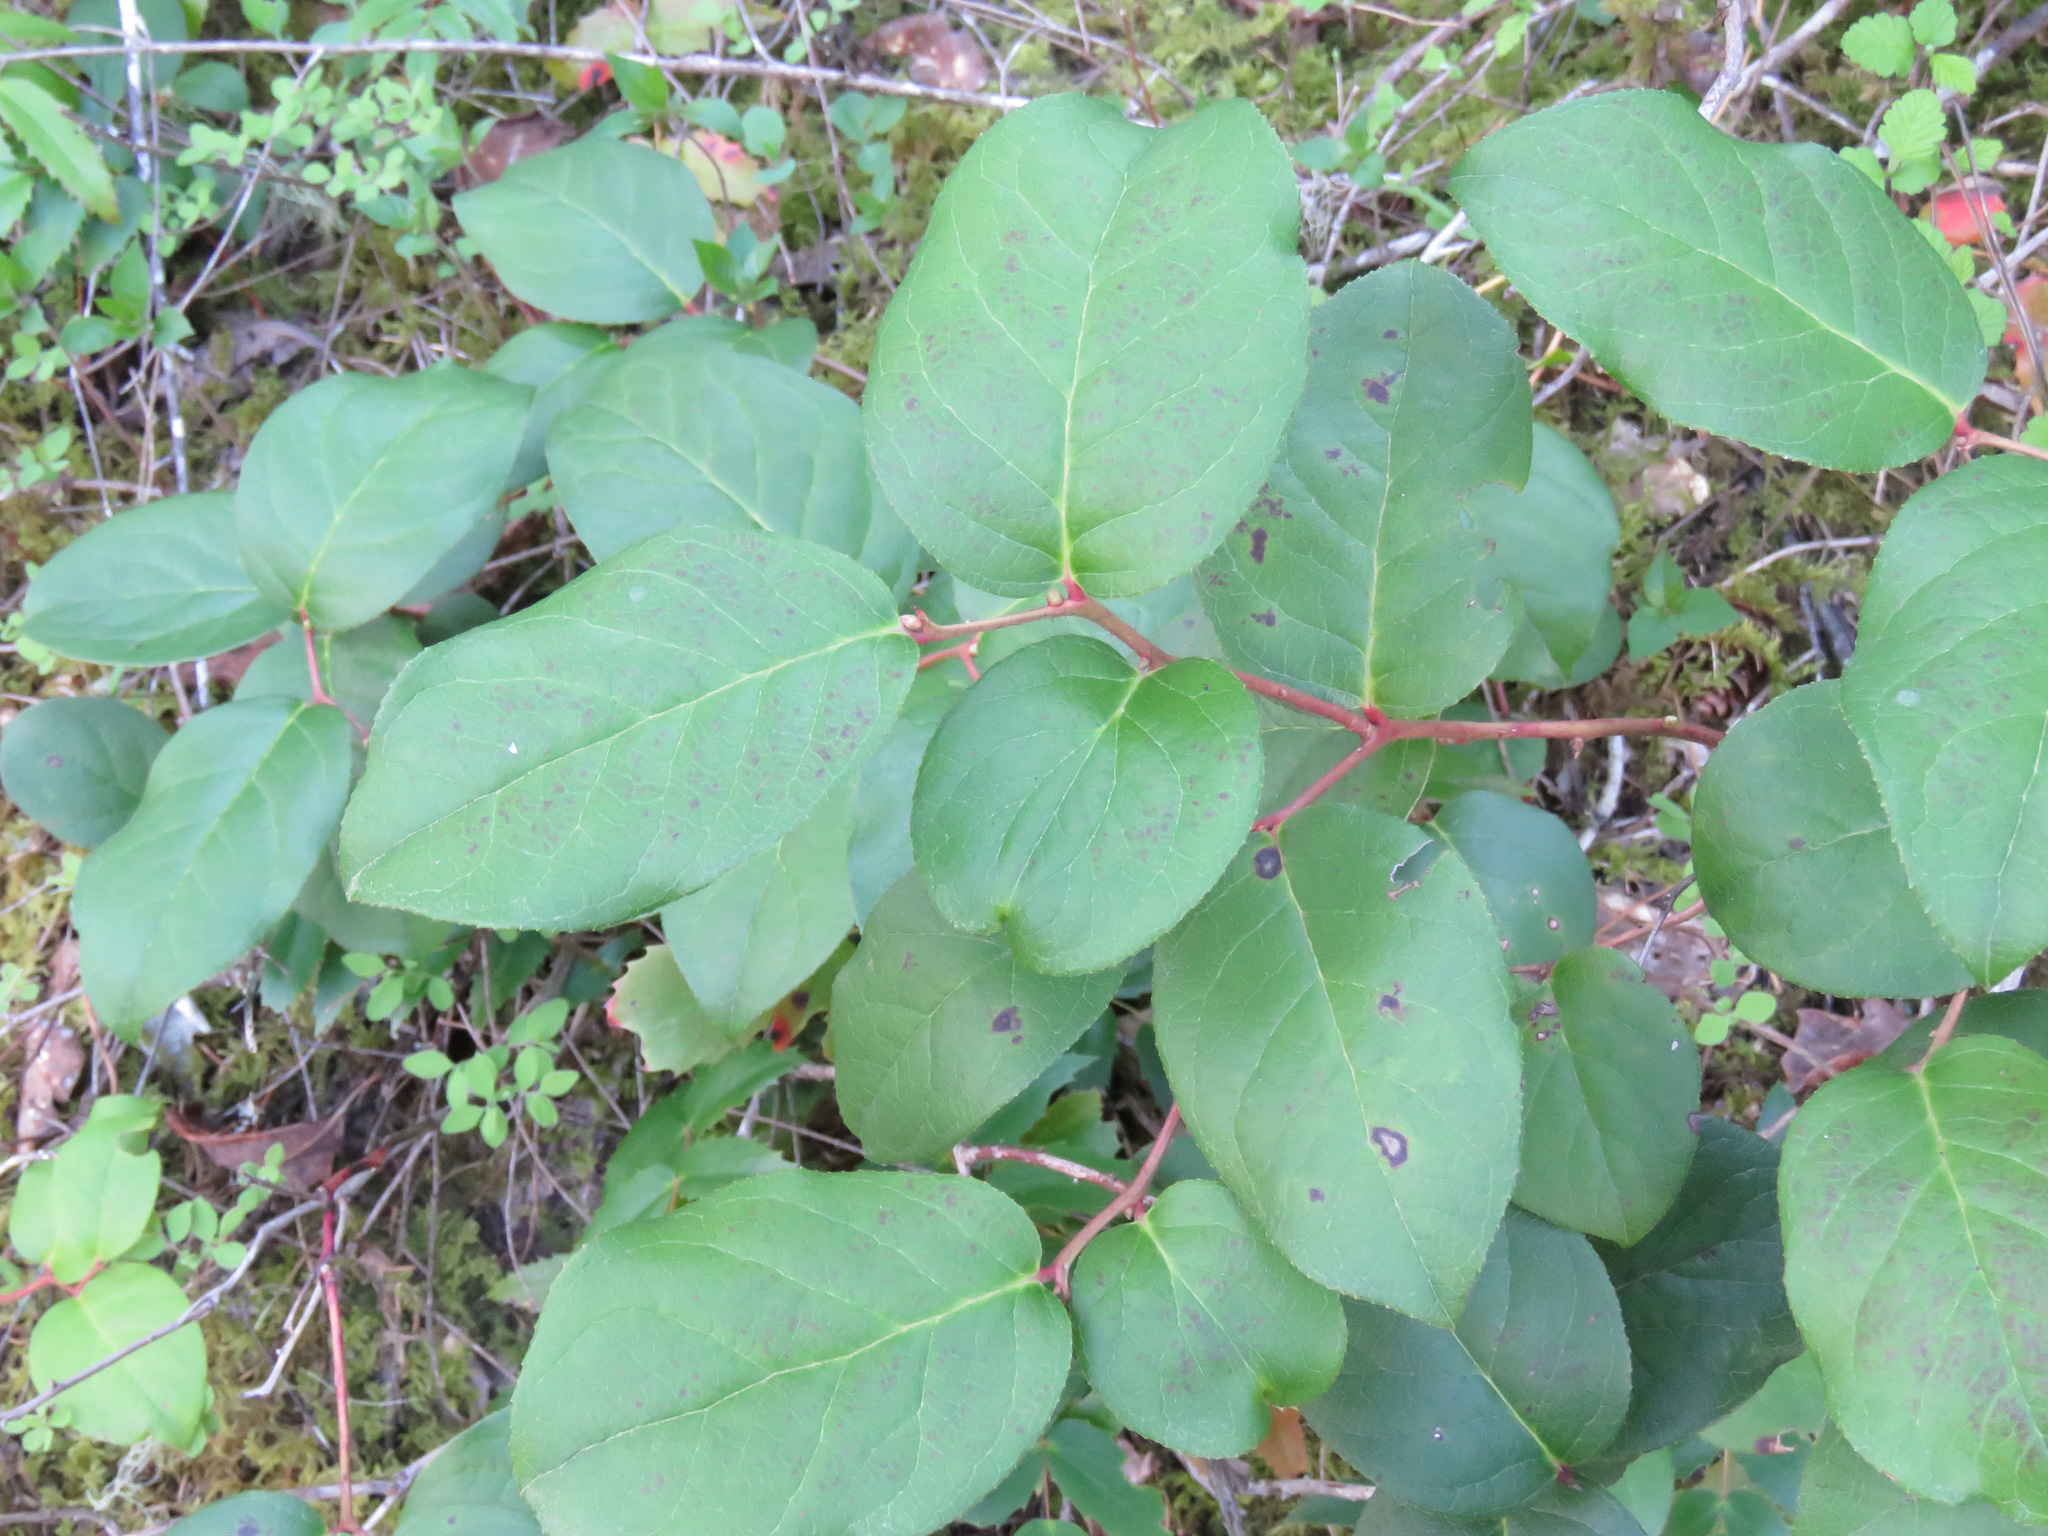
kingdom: Plantae
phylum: Tracheophyta
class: Magnoliopsida
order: Ericales
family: Ericaceae
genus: Gaultheria
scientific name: Gaultheria shallon
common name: Shallon
